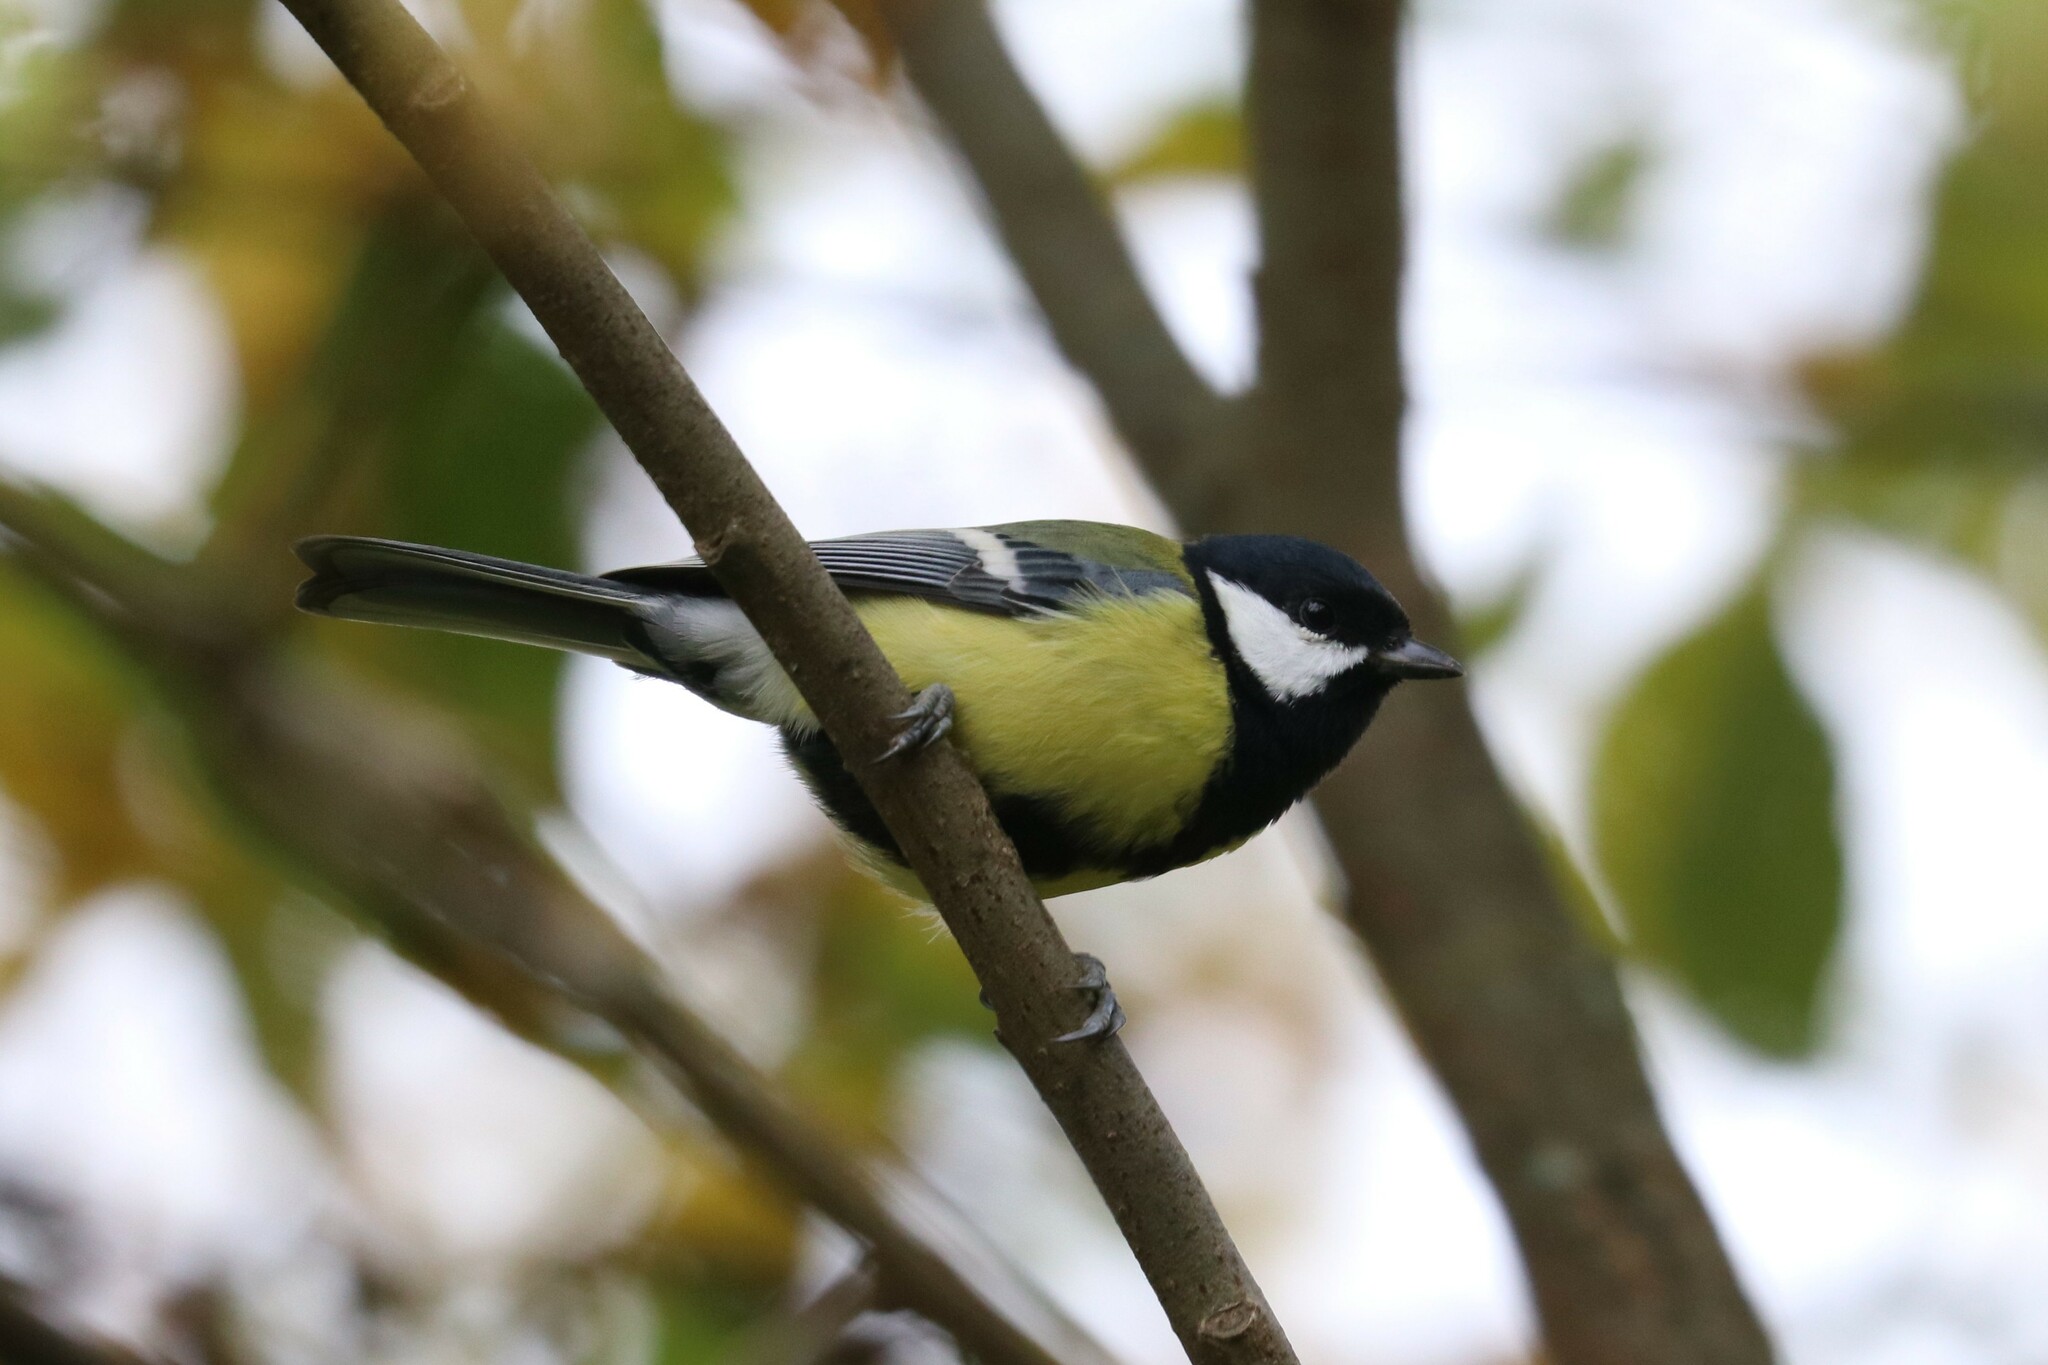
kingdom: Animalia
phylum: Chordata
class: Aves
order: Passeriformes
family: Paridae
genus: Parus
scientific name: Parus major
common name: Great tit
